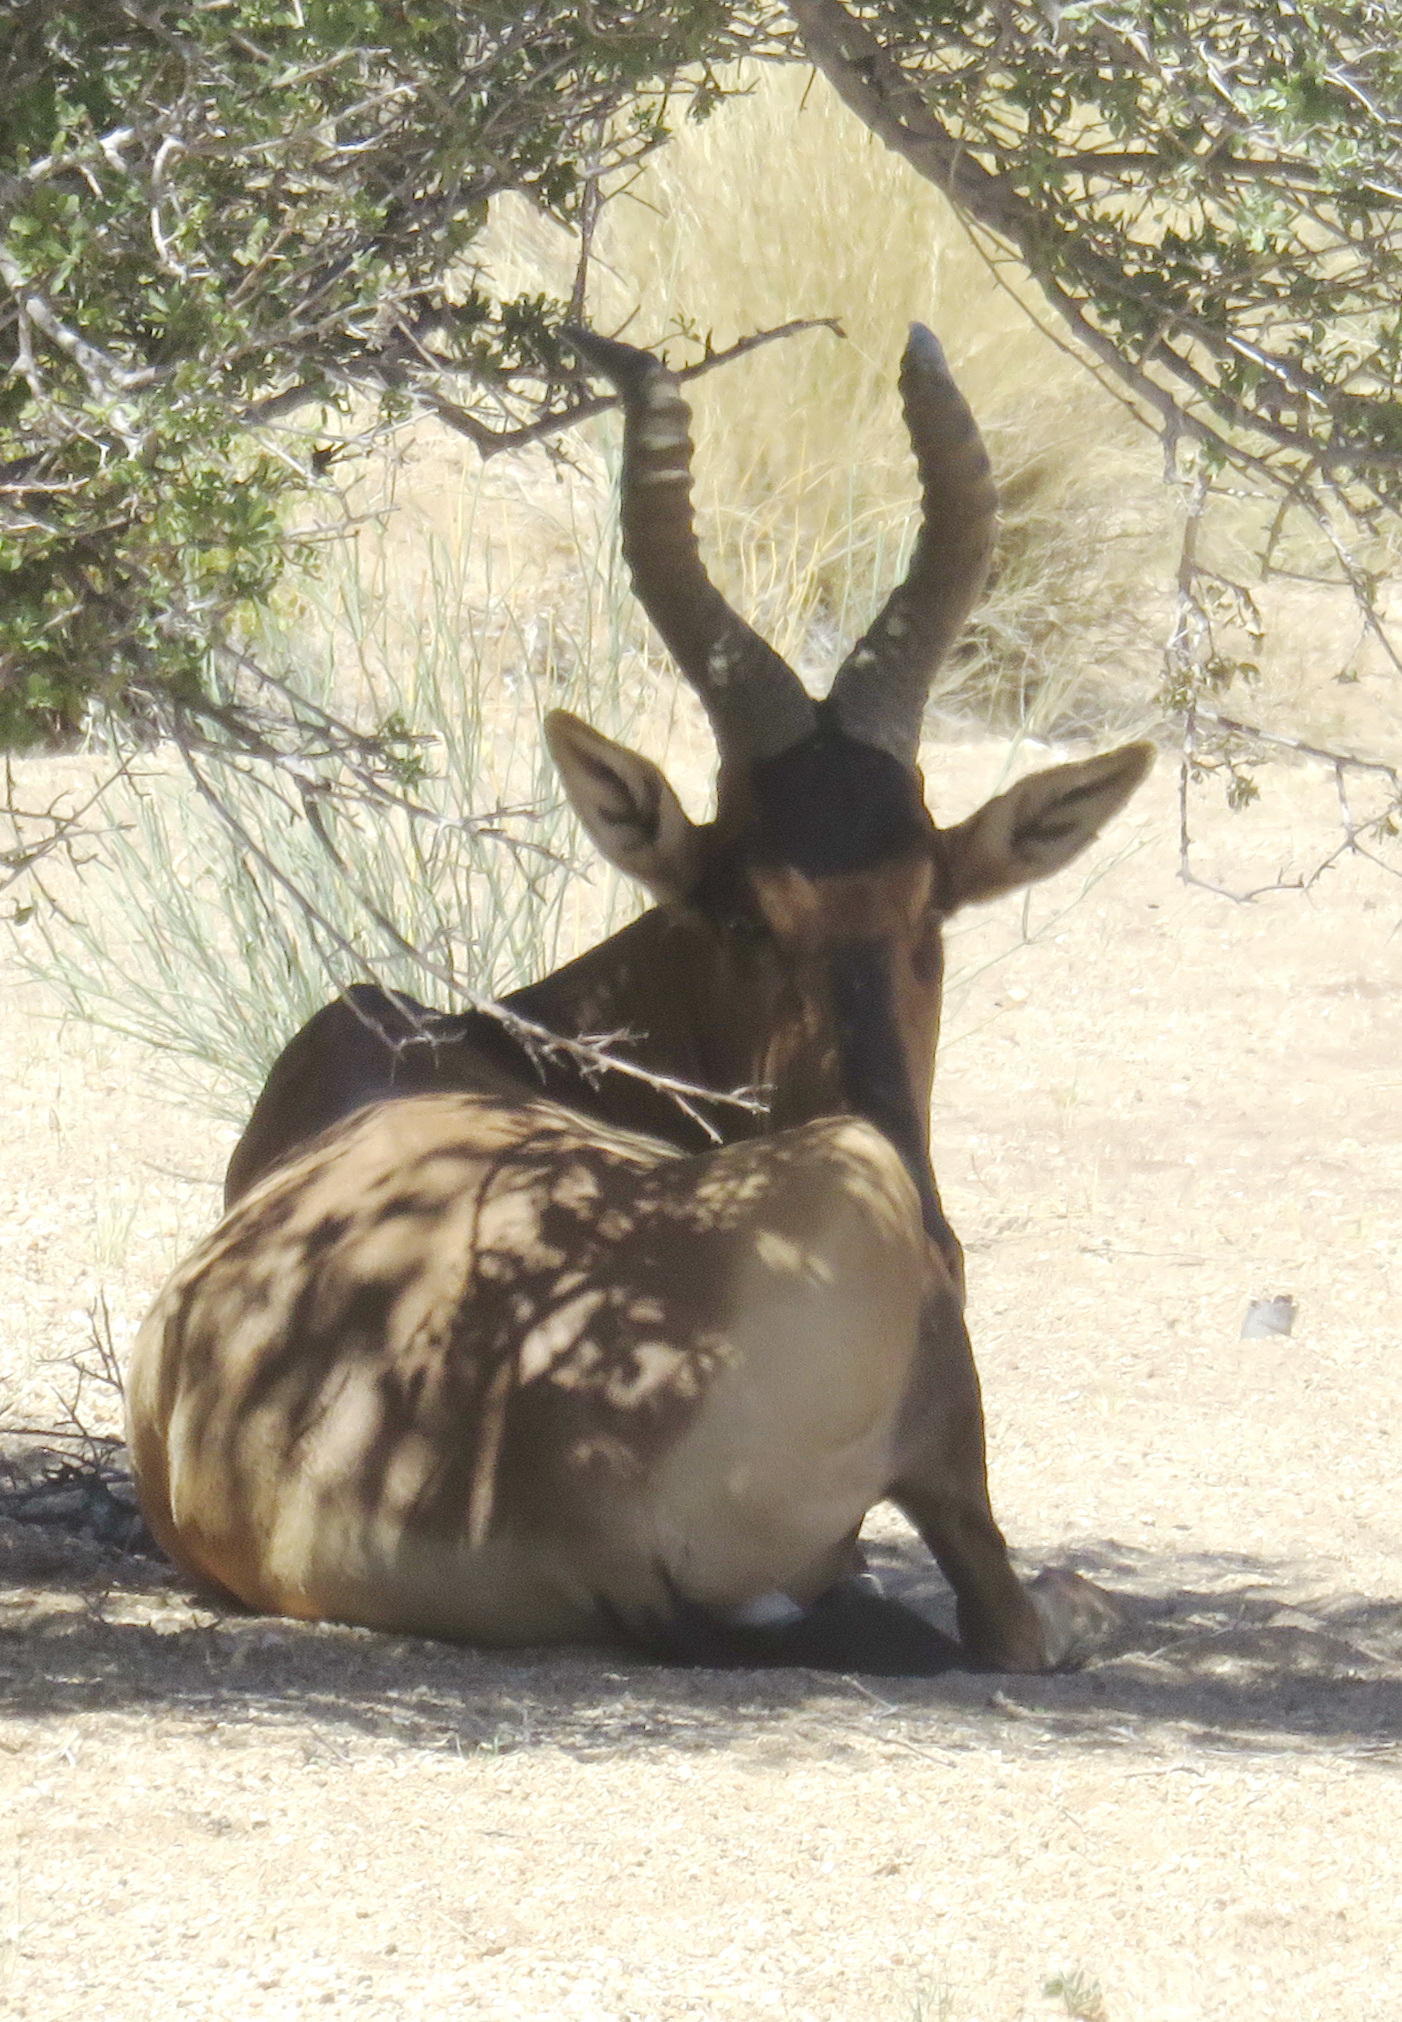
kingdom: Animalia
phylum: Chordata
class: Mammalia
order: Artiodactyla
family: Bovidae
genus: Alcelaphus
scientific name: Alcelaphus caama
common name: Red hartebeest
